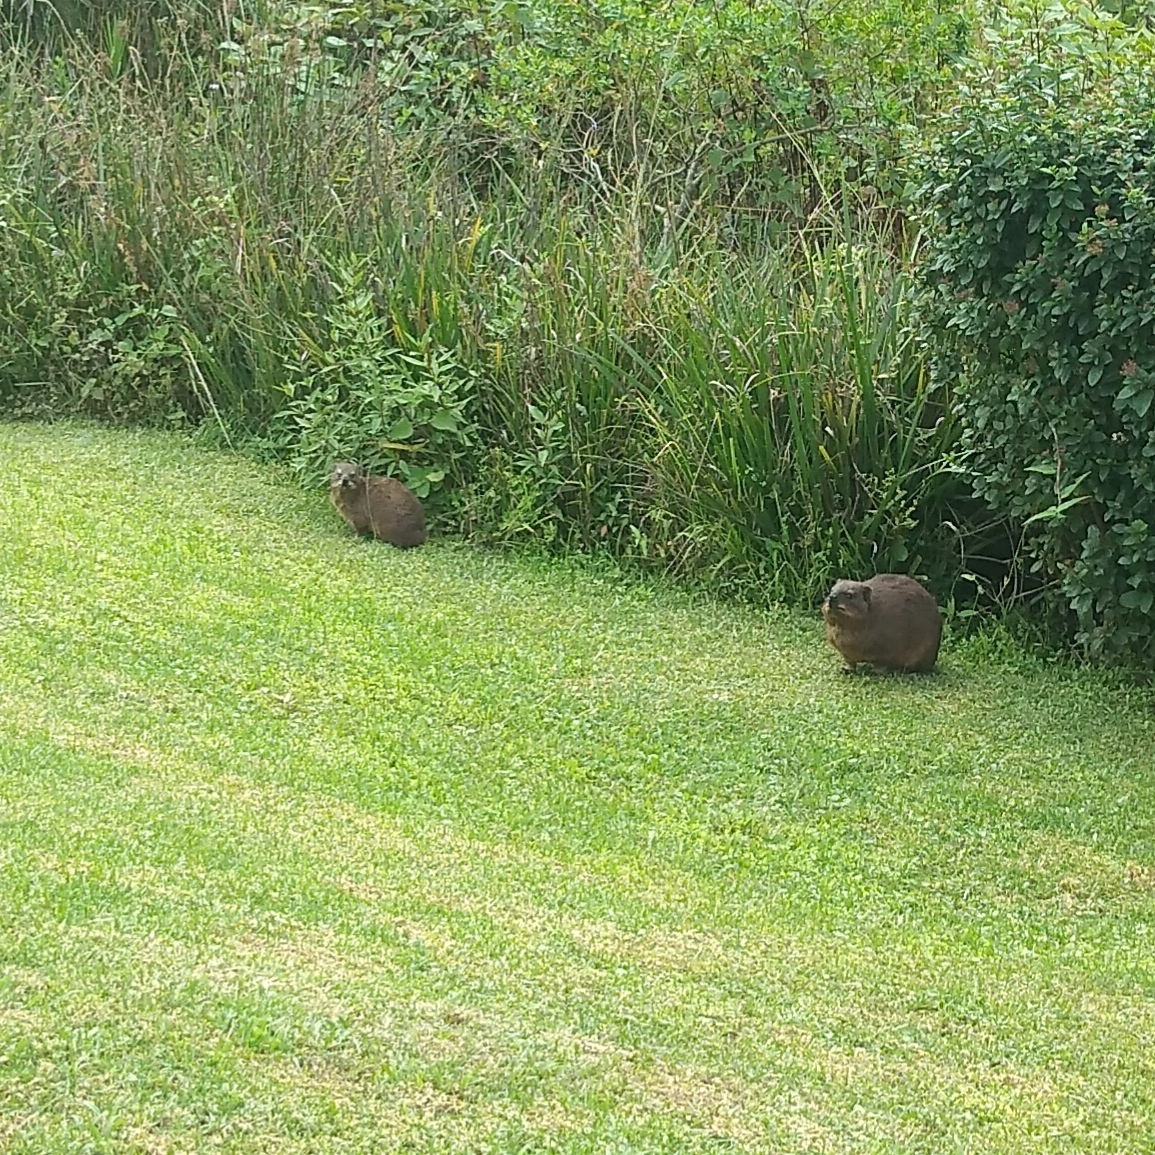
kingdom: Animalia
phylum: Chordata
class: Mammalia
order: Hyracoidea
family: Procaviidae
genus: Procavia
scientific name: Procavia capensis
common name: Rock hyrax
